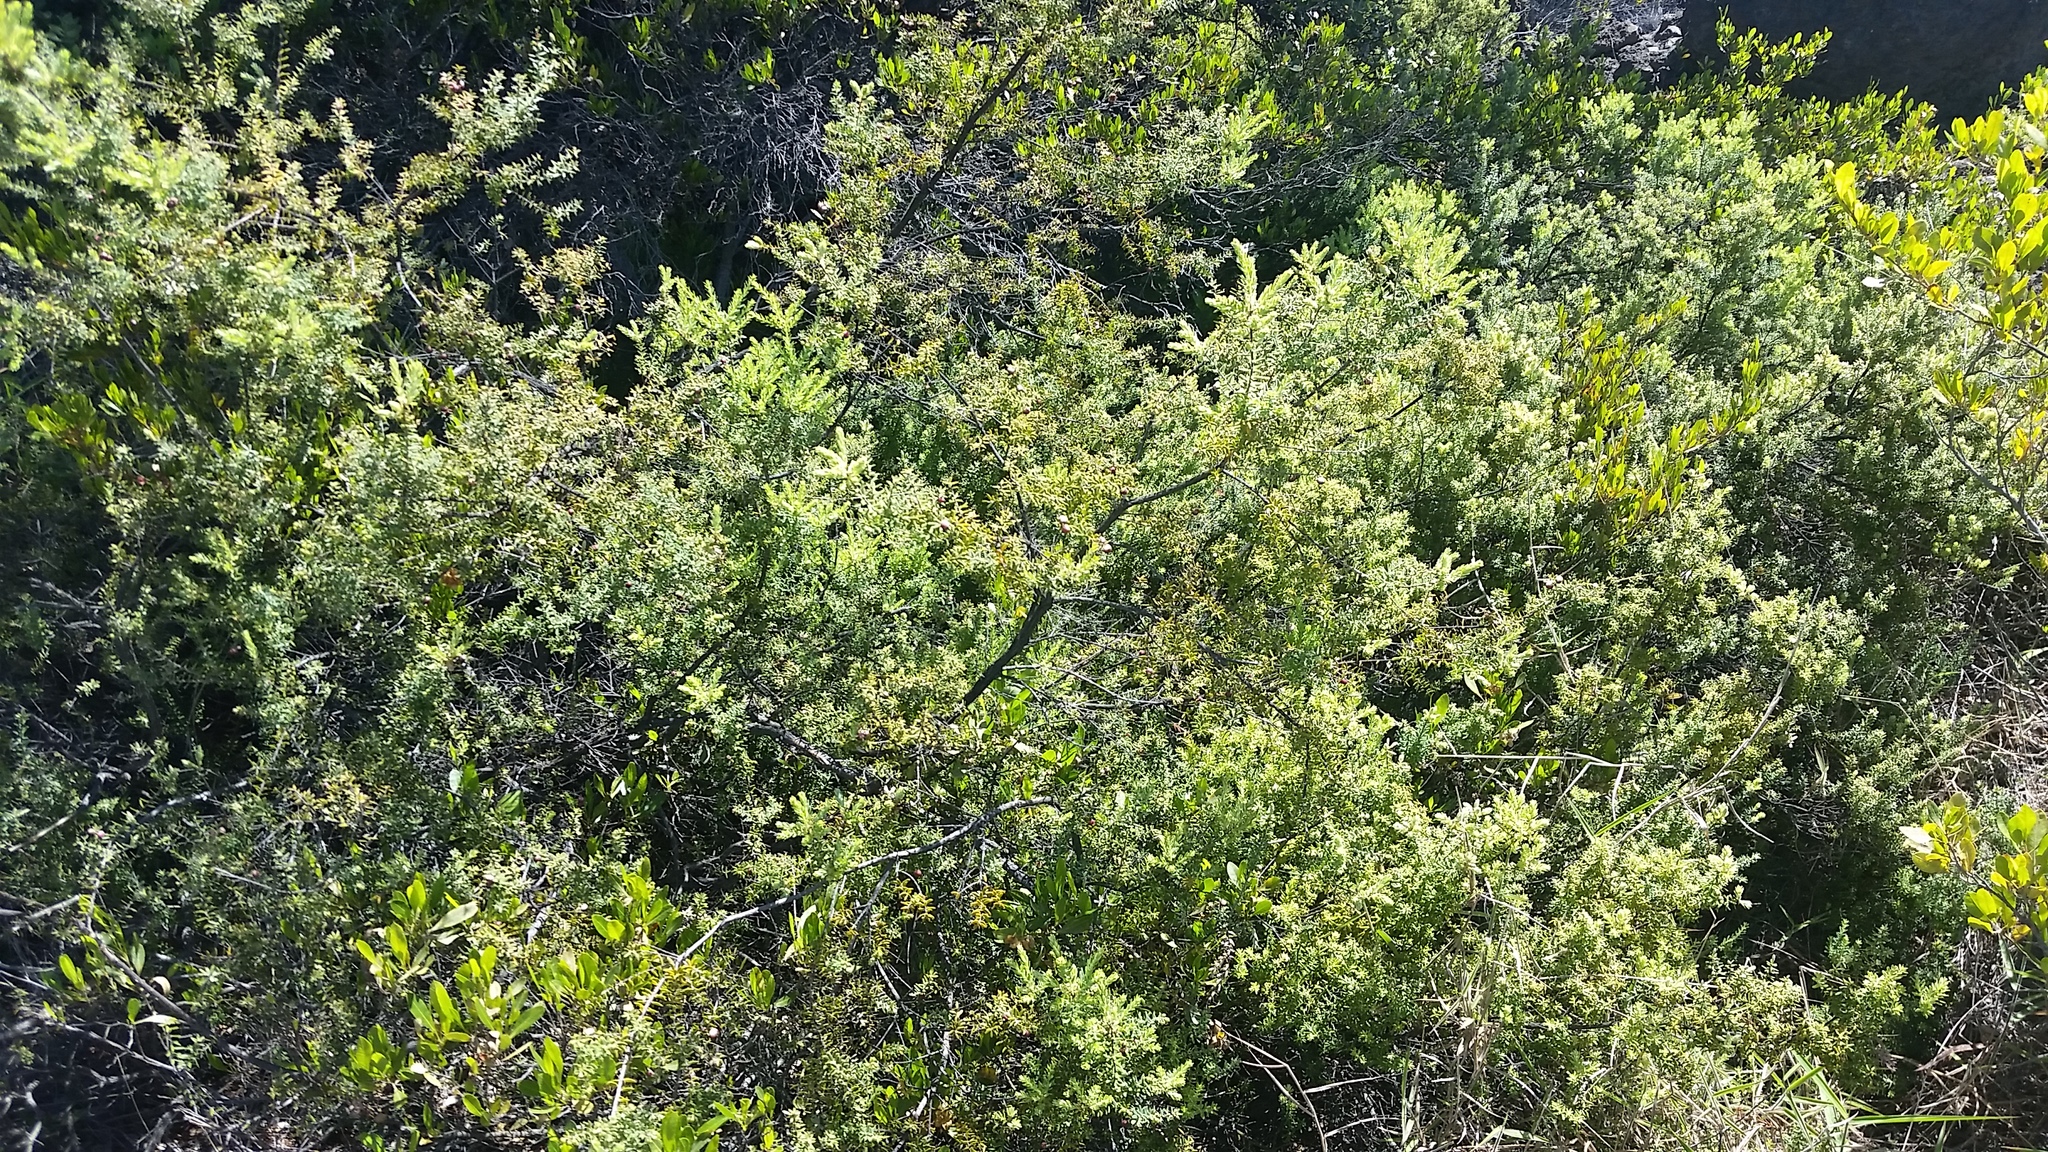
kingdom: Plantae
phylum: Tracheophyta
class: Magnoliopsida
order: Ericales
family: Ericaceae
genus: Leptecophylla
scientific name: Leptecophylla tameiameiae
